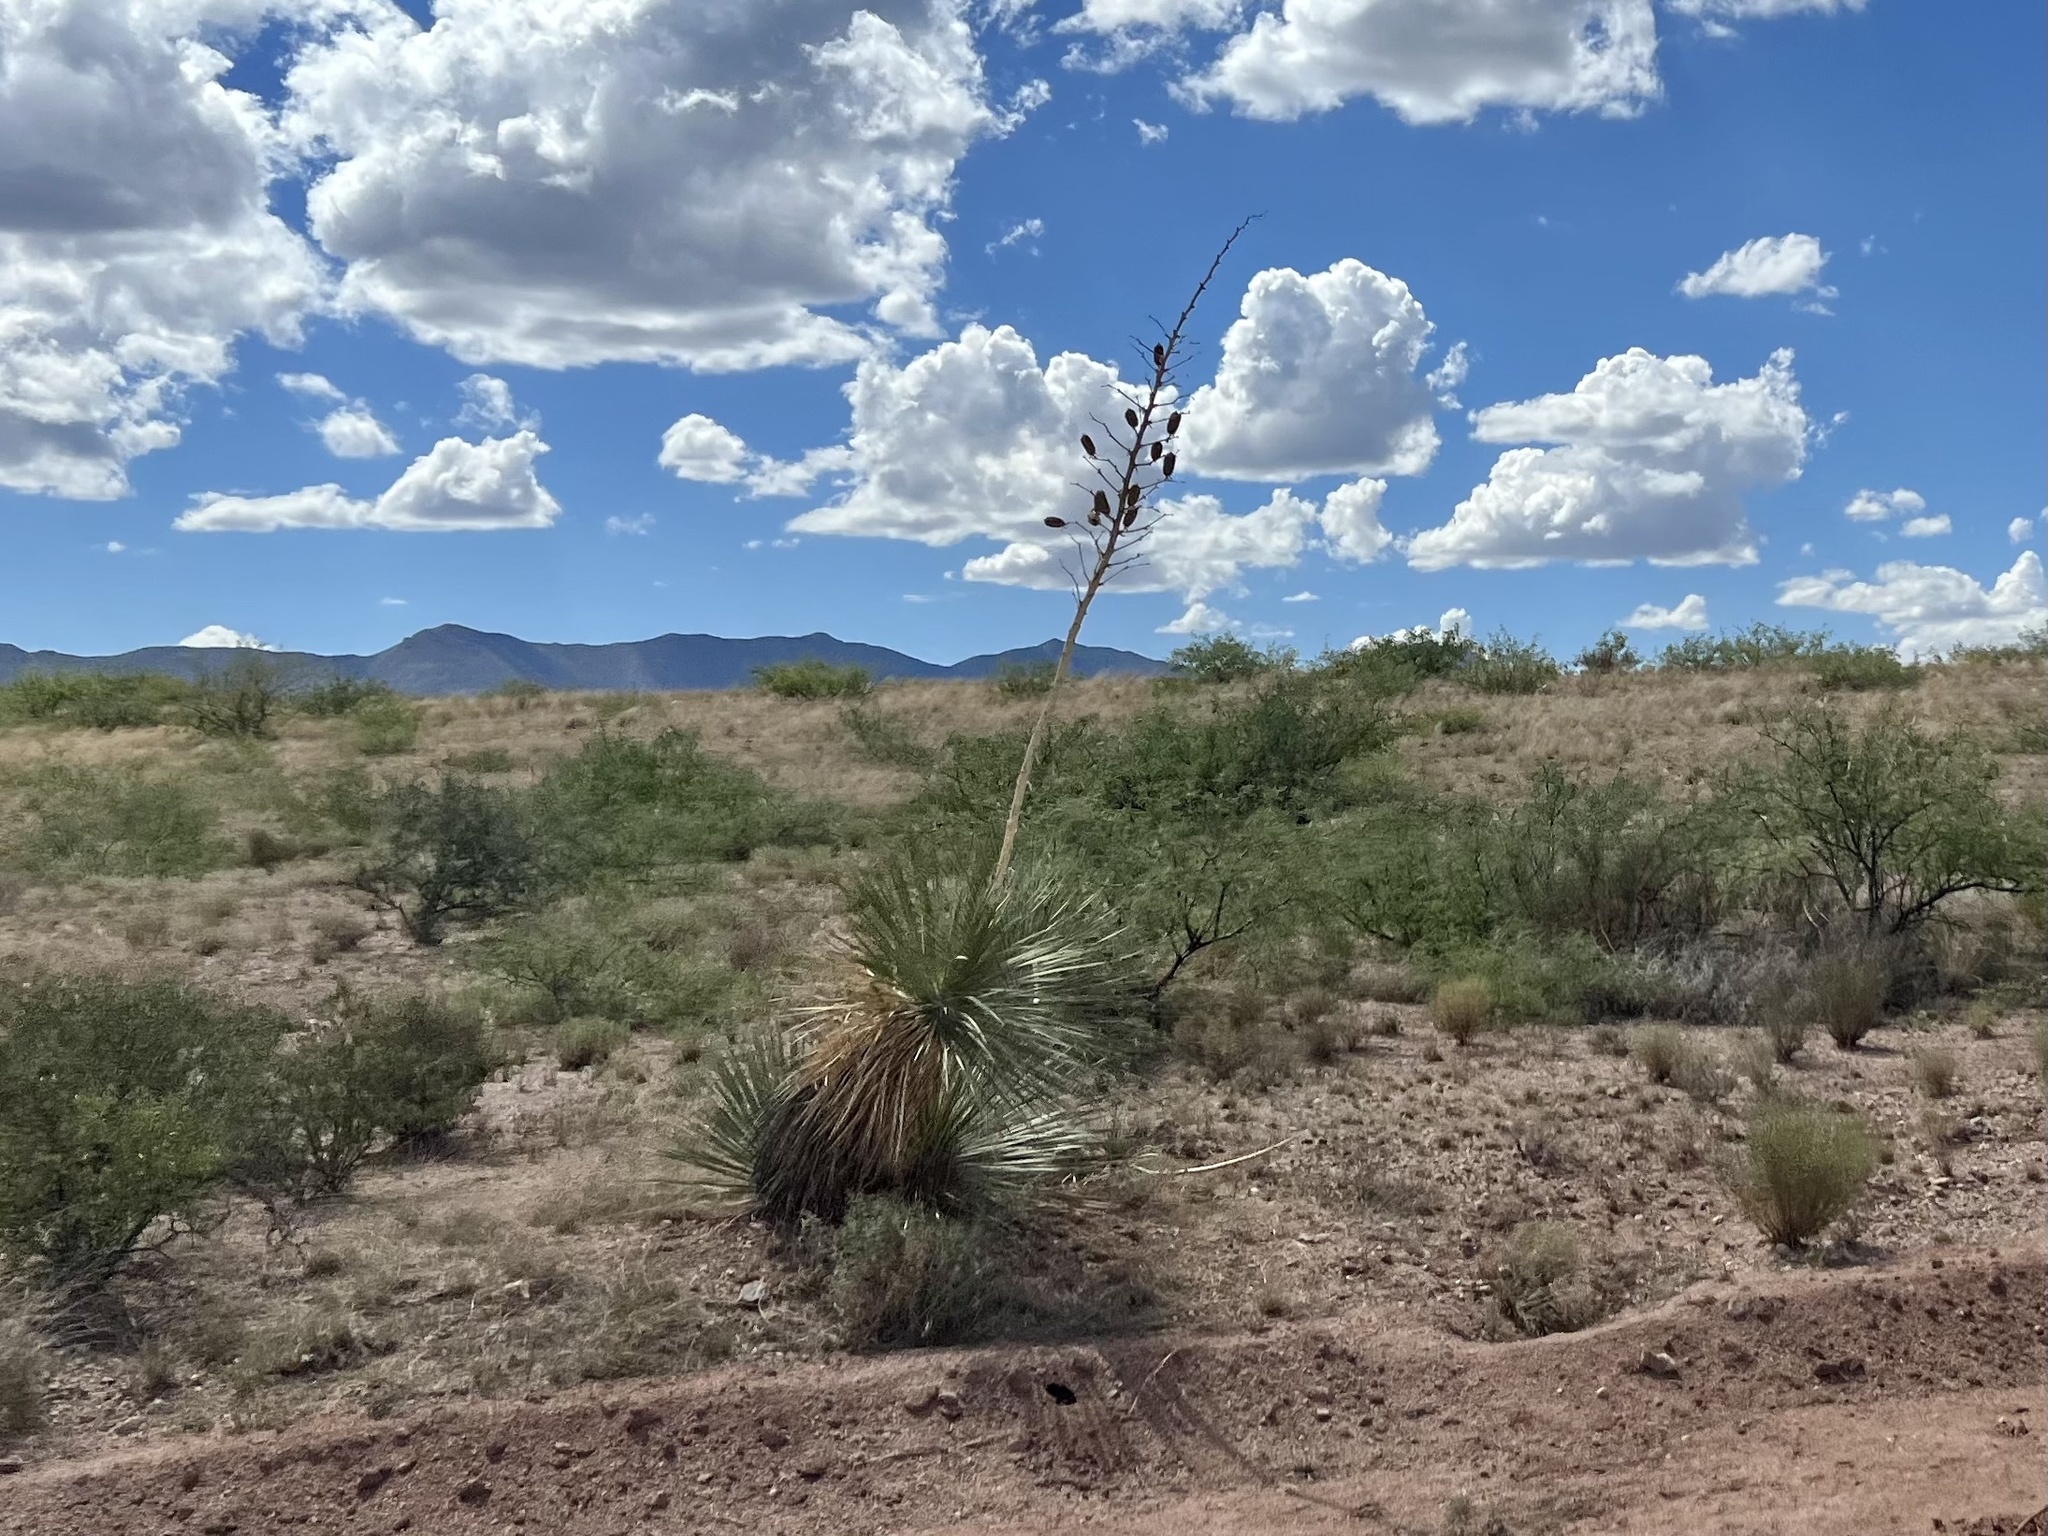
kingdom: Plantae
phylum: Tracheophyta
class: Liliopsida
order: Asparagales
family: Asparagaceae
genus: Yucca
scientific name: Yucca elata
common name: Palmella
